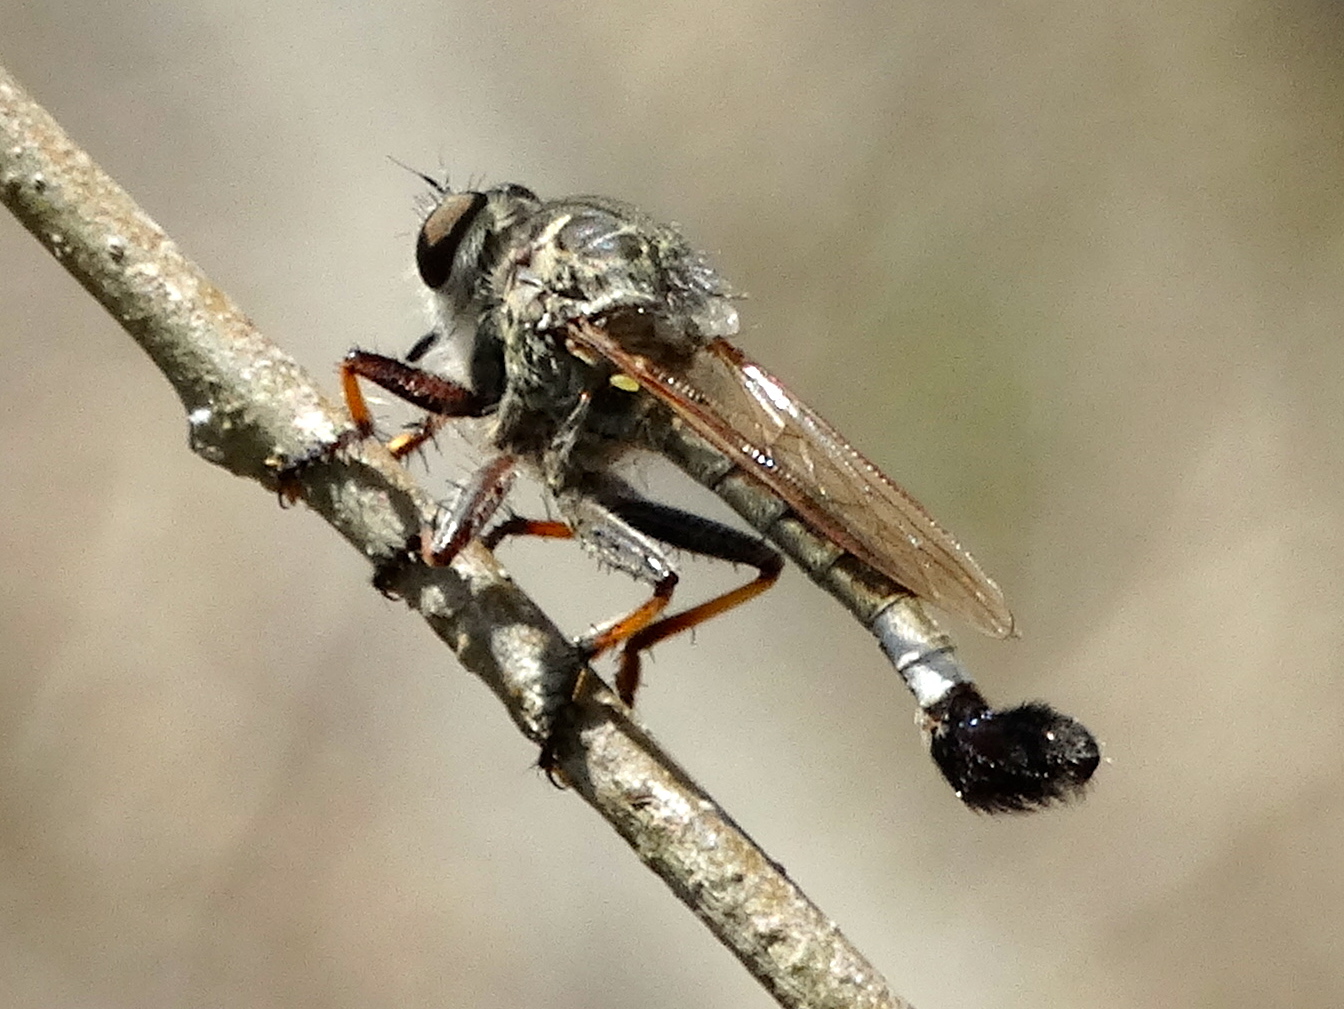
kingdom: Animalia
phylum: Arthropoda
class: Insecta
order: Diptera
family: Asilidae
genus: Efferia
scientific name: Efferia
